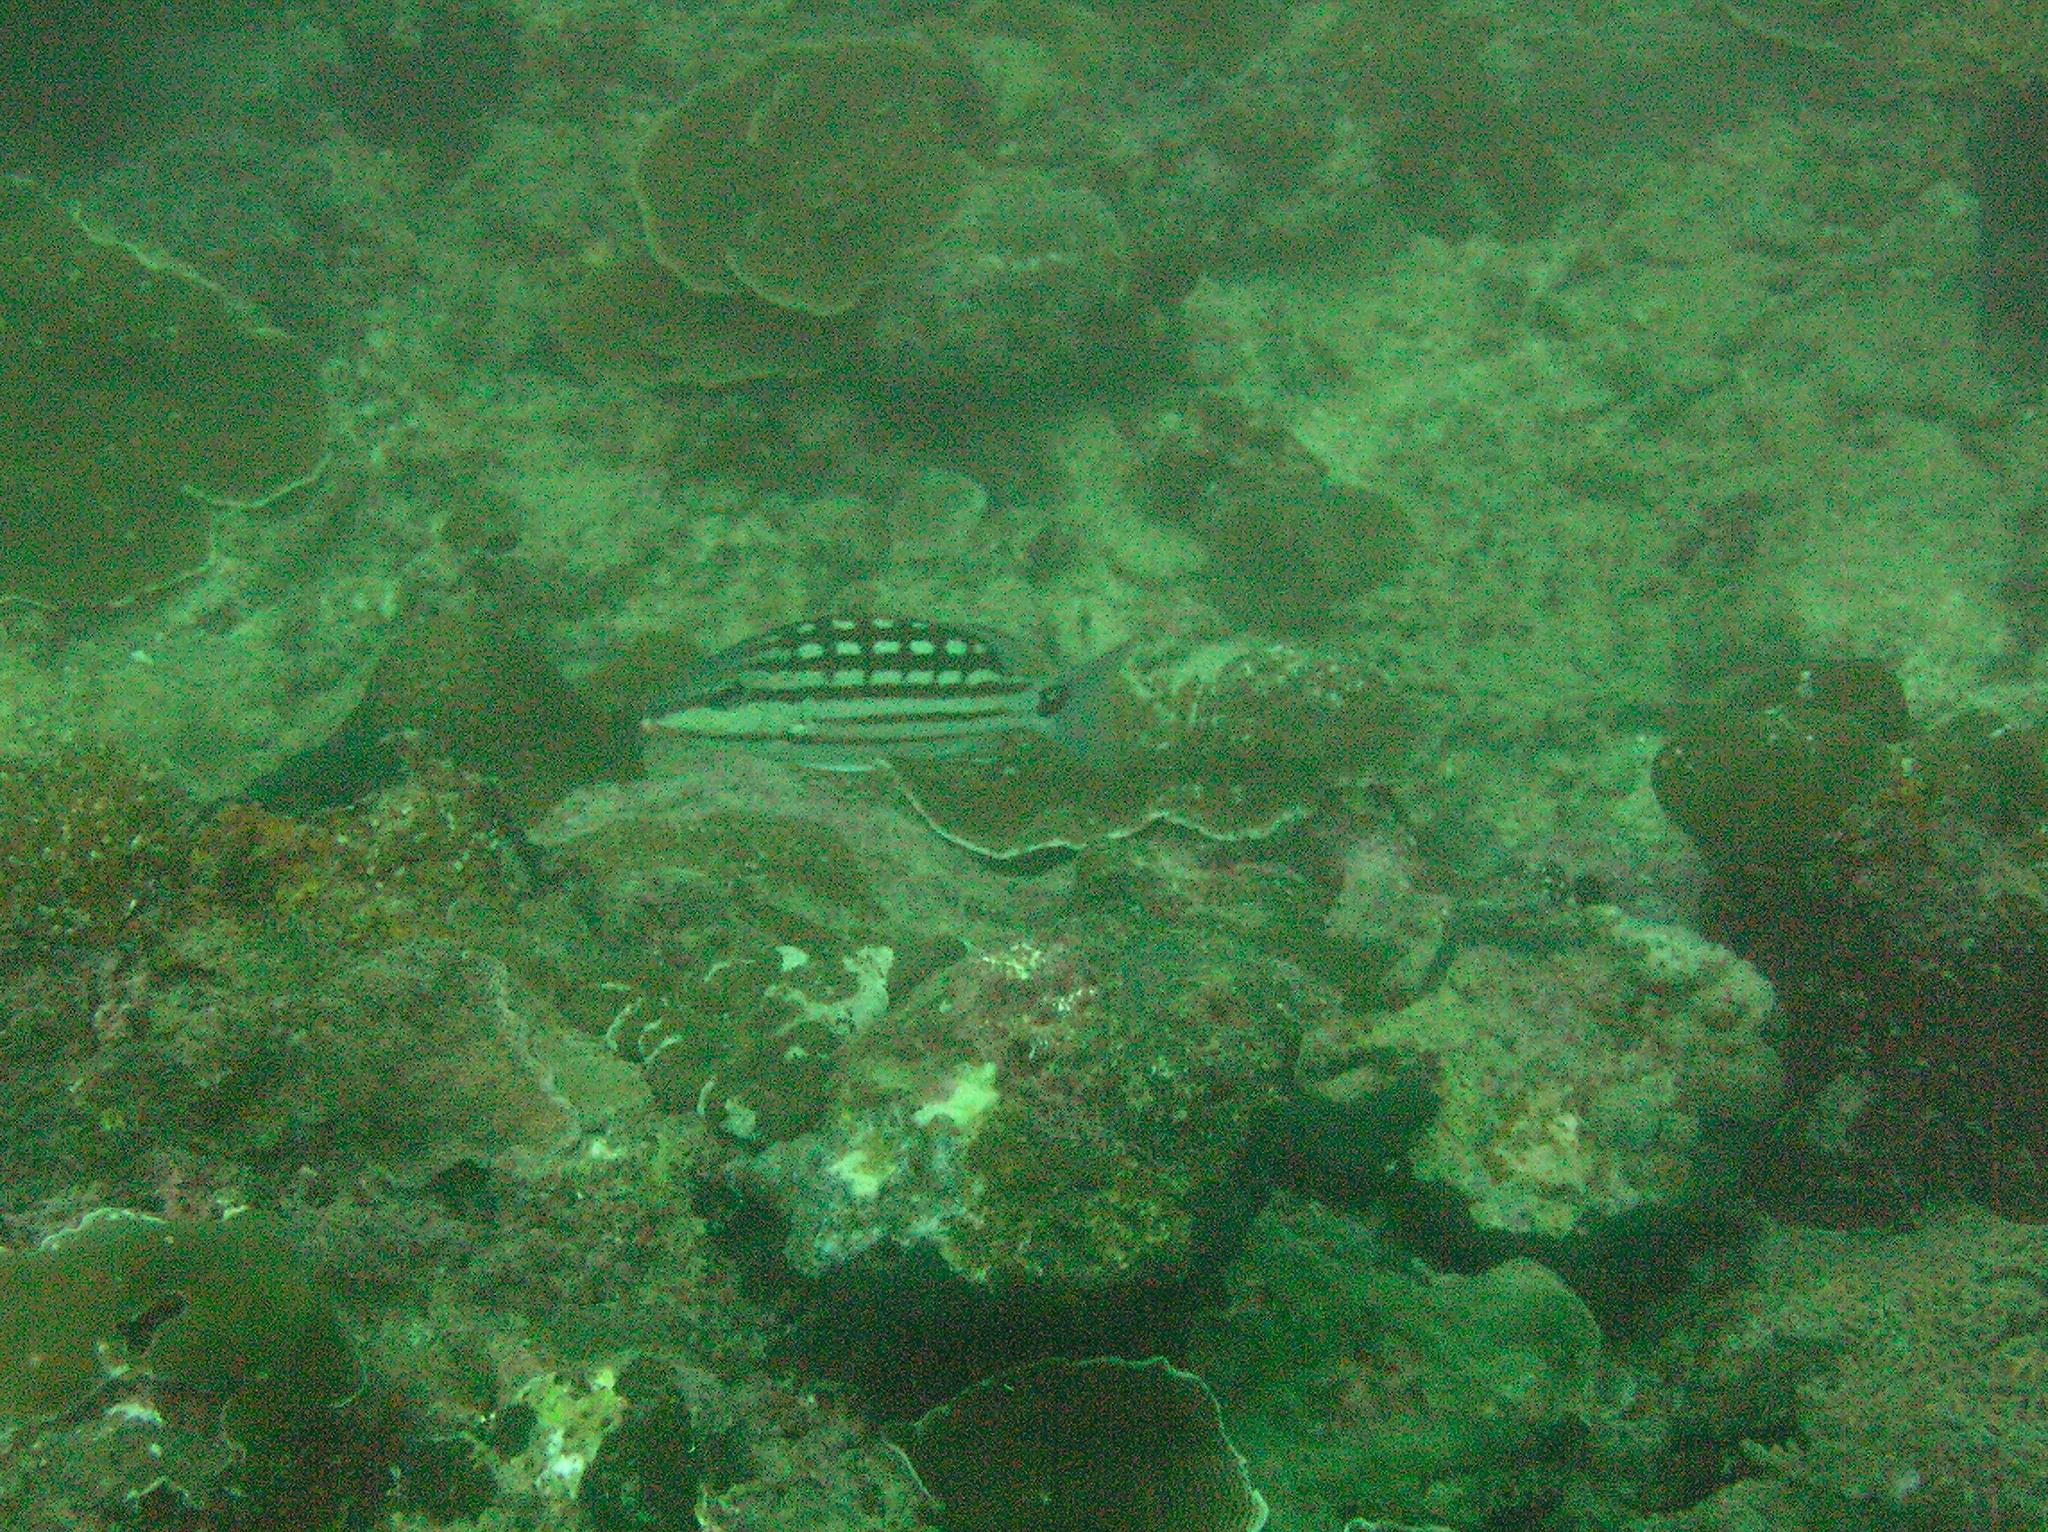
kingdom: Animalia
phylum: Chordata
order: Perciformes
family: Lutjanidae
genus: Lutjanus
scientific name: Lutjanus decussatus
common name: Checkered snapper
